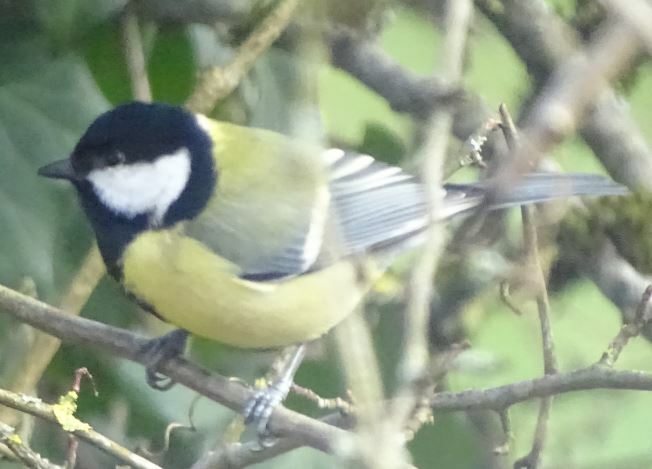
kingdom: Animalia
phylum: Chordata
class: Aves
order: Passeriformes
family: Paridae
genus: Parus
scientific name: Parus major
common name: Great tit
